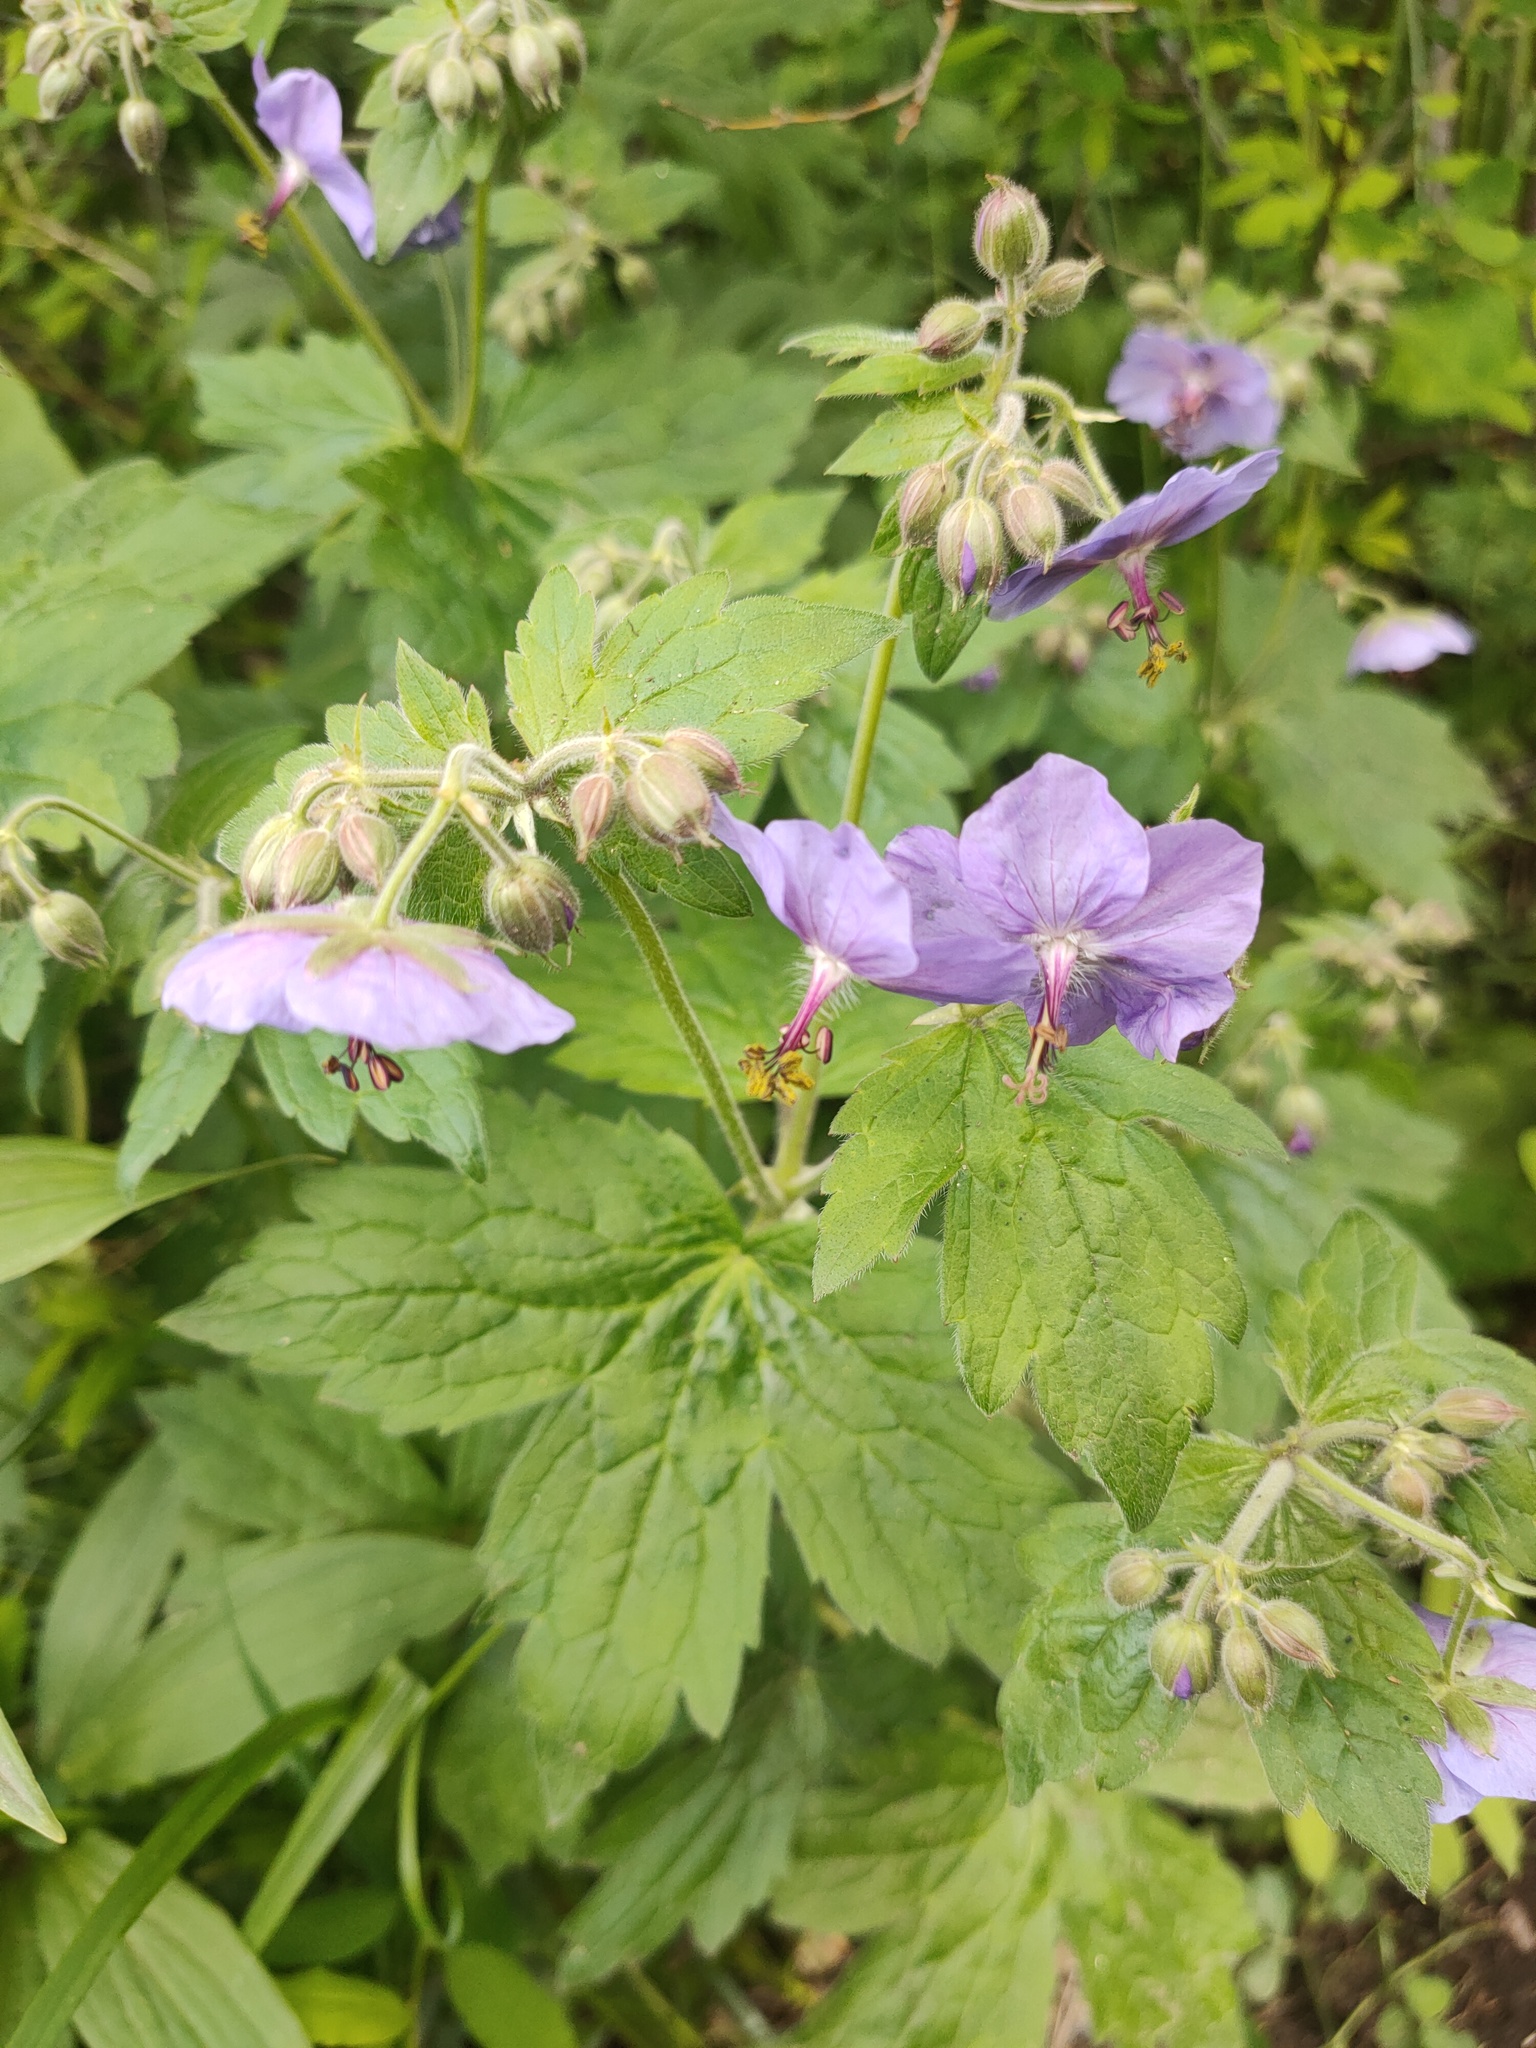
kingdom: Plantae
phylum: Tracheophyta
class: Magnoliopsida
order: Geraniales
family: Geraniaceae
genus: Geranium
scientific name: Geranium platyanthum
